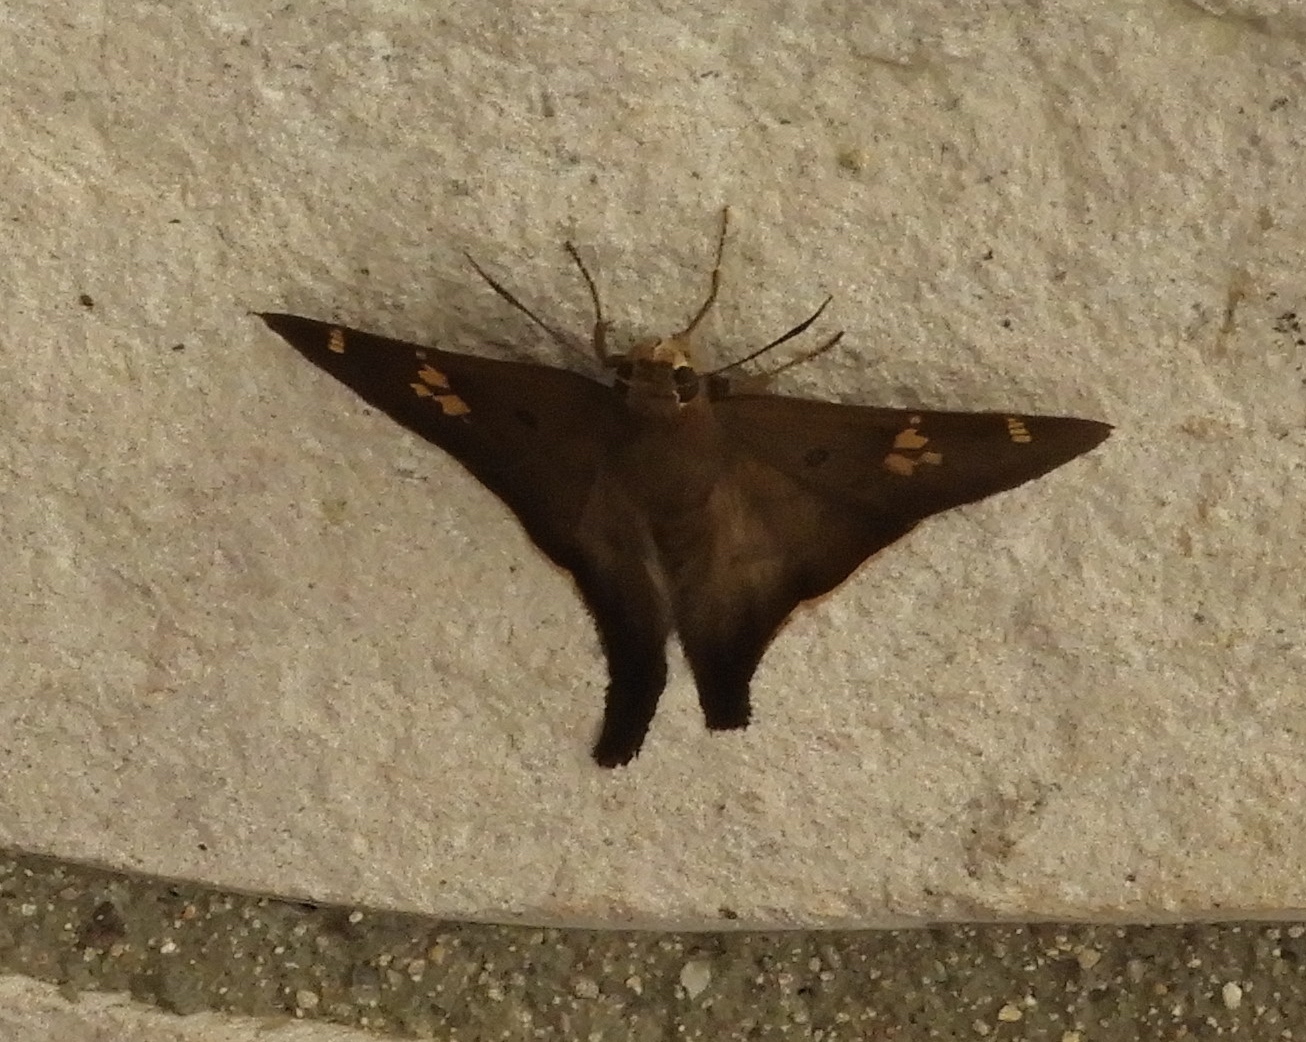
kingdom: Animalia
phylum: Arthropoda
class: Insecta
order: Lepidoptera
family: Hesperiidae
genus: Ectomis
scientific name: Ectomis
